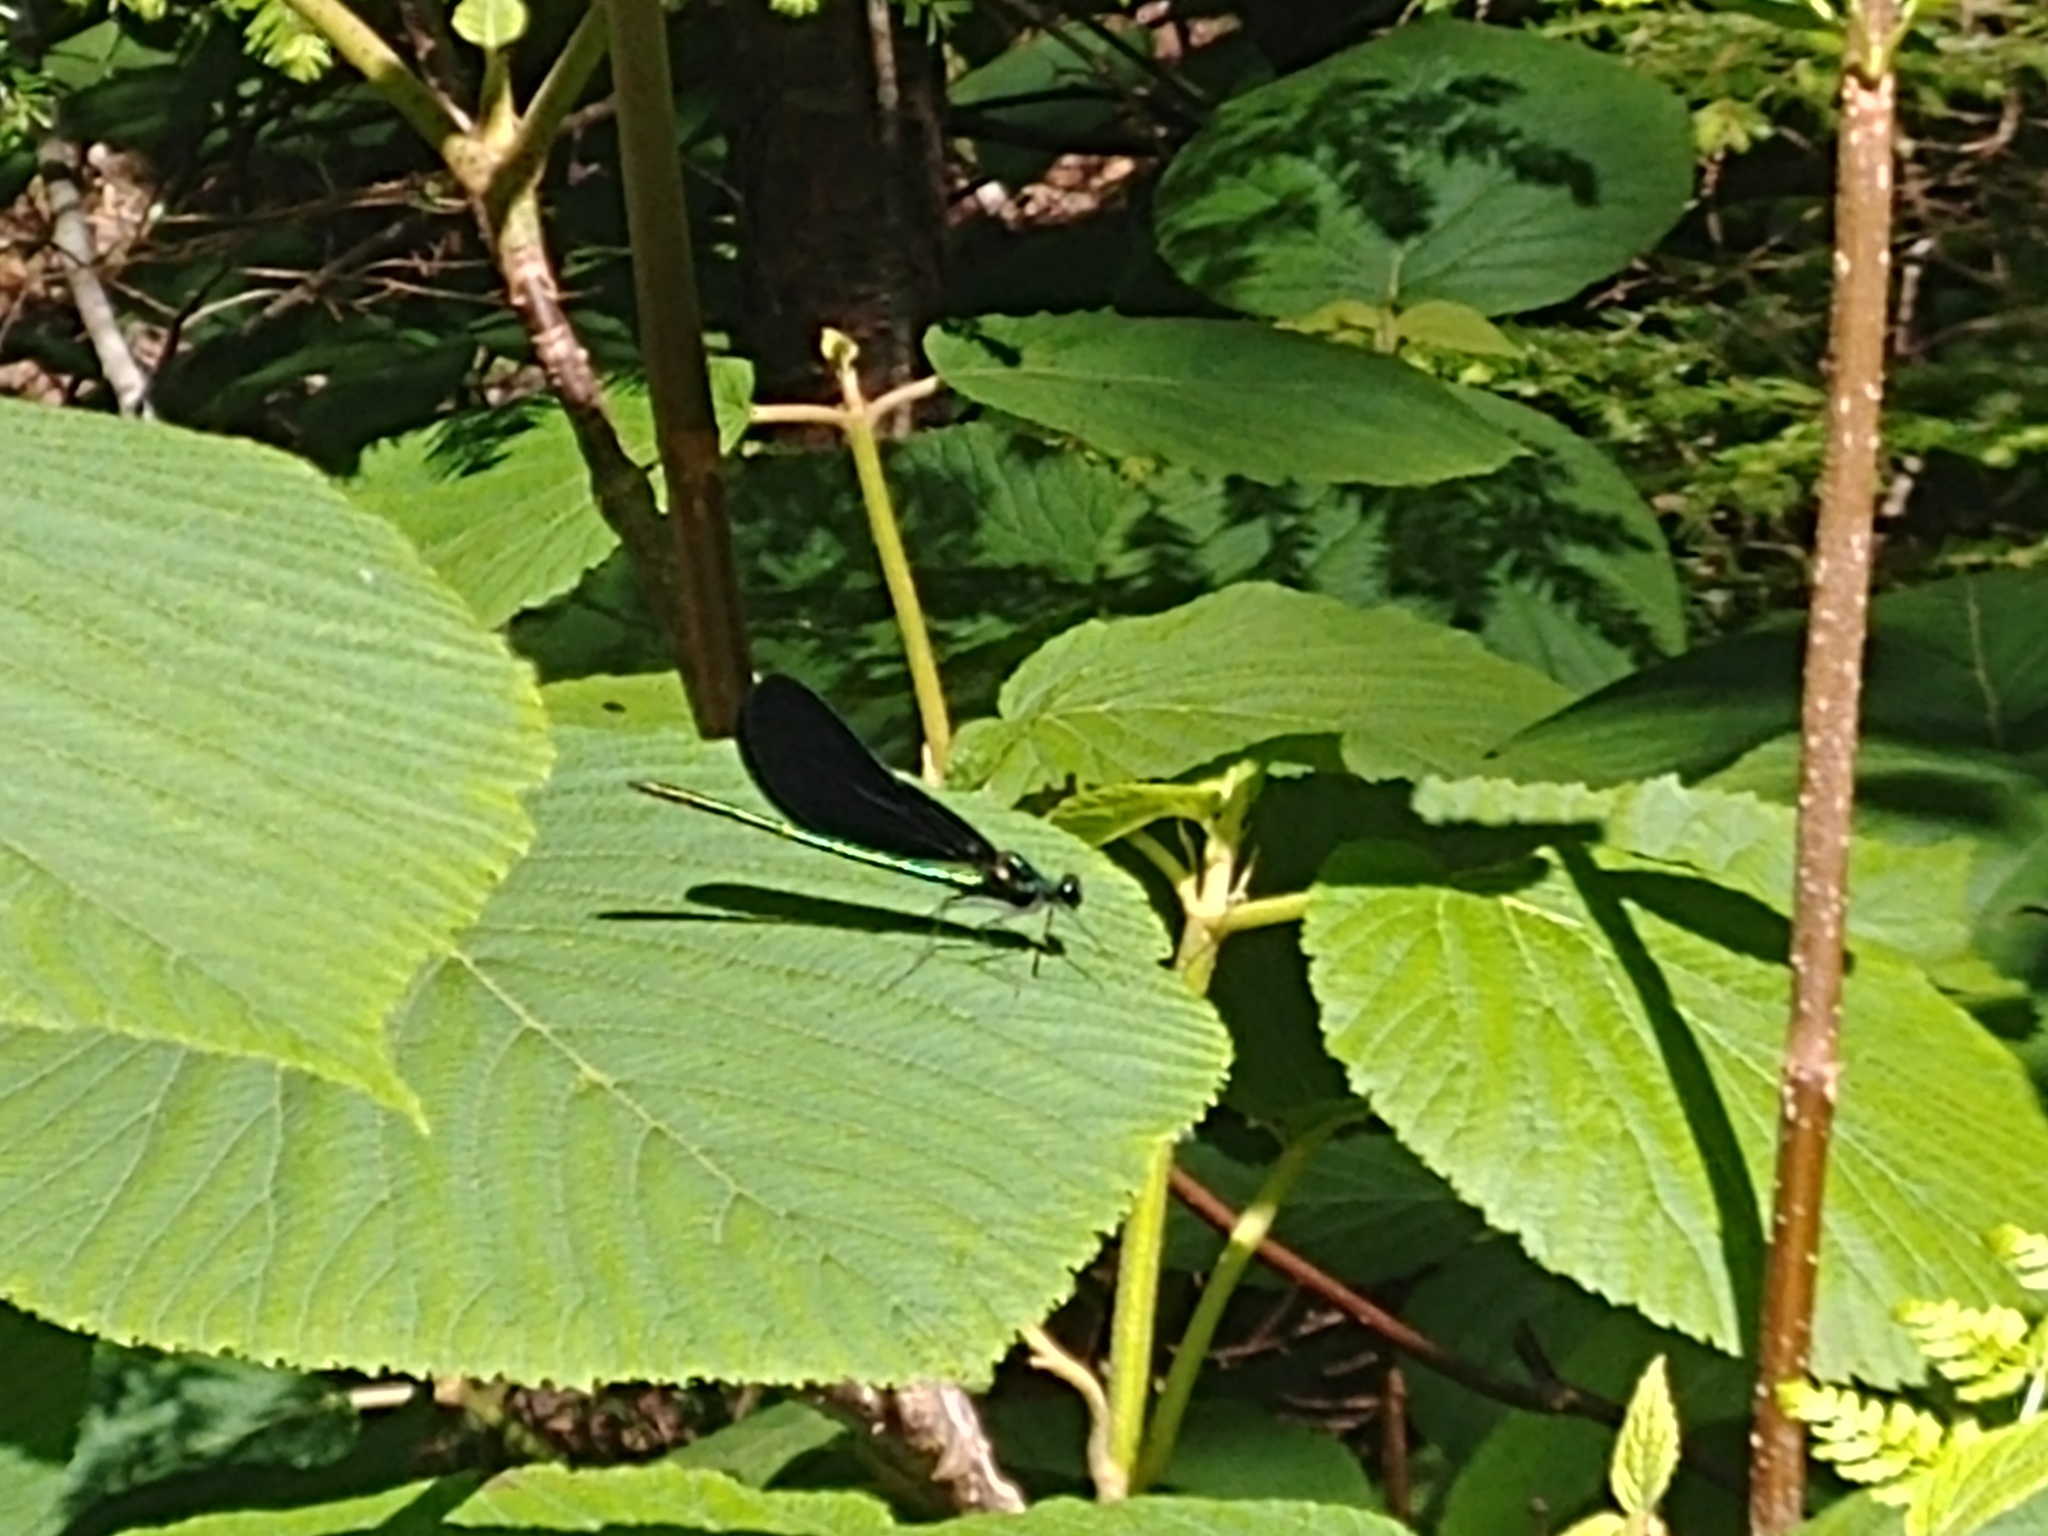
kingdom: Animalia
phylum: Arthropoda
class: Insecta
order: Odonata
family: Calopterygidae
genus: Calopteryx
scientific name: Calopteryx maculata
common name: Ebony jewelwing
